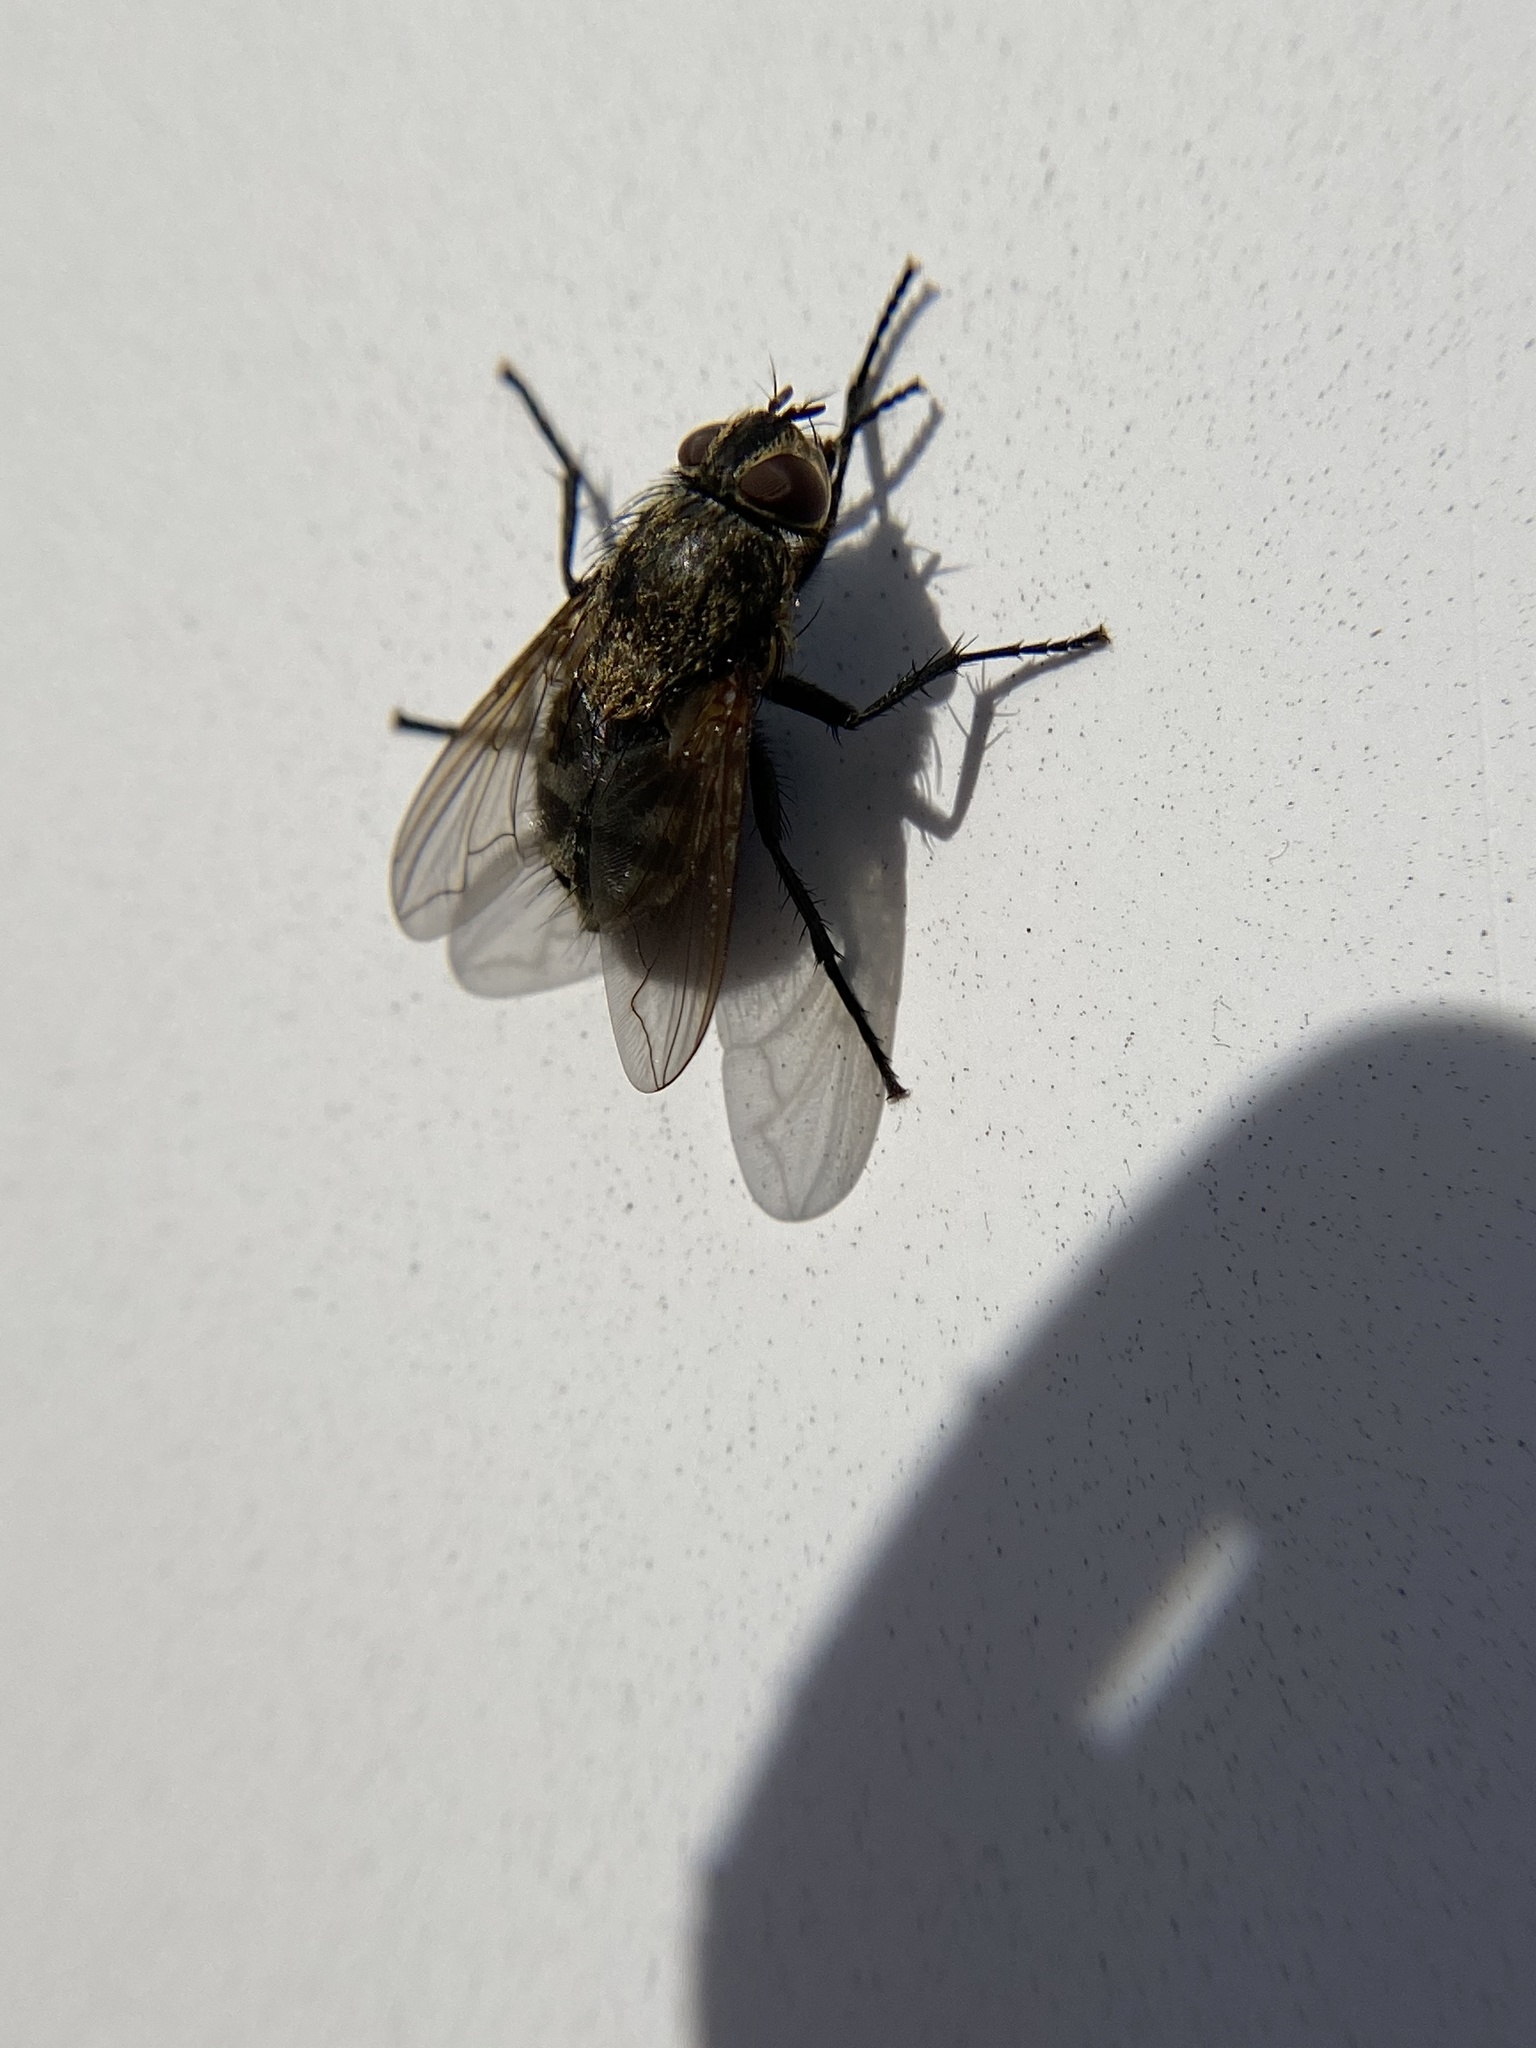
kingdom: Animalia
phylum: Arthropoda
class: Insecta
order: Diptera
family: Polleniidae
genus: Pollenia
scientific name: Pollenia
